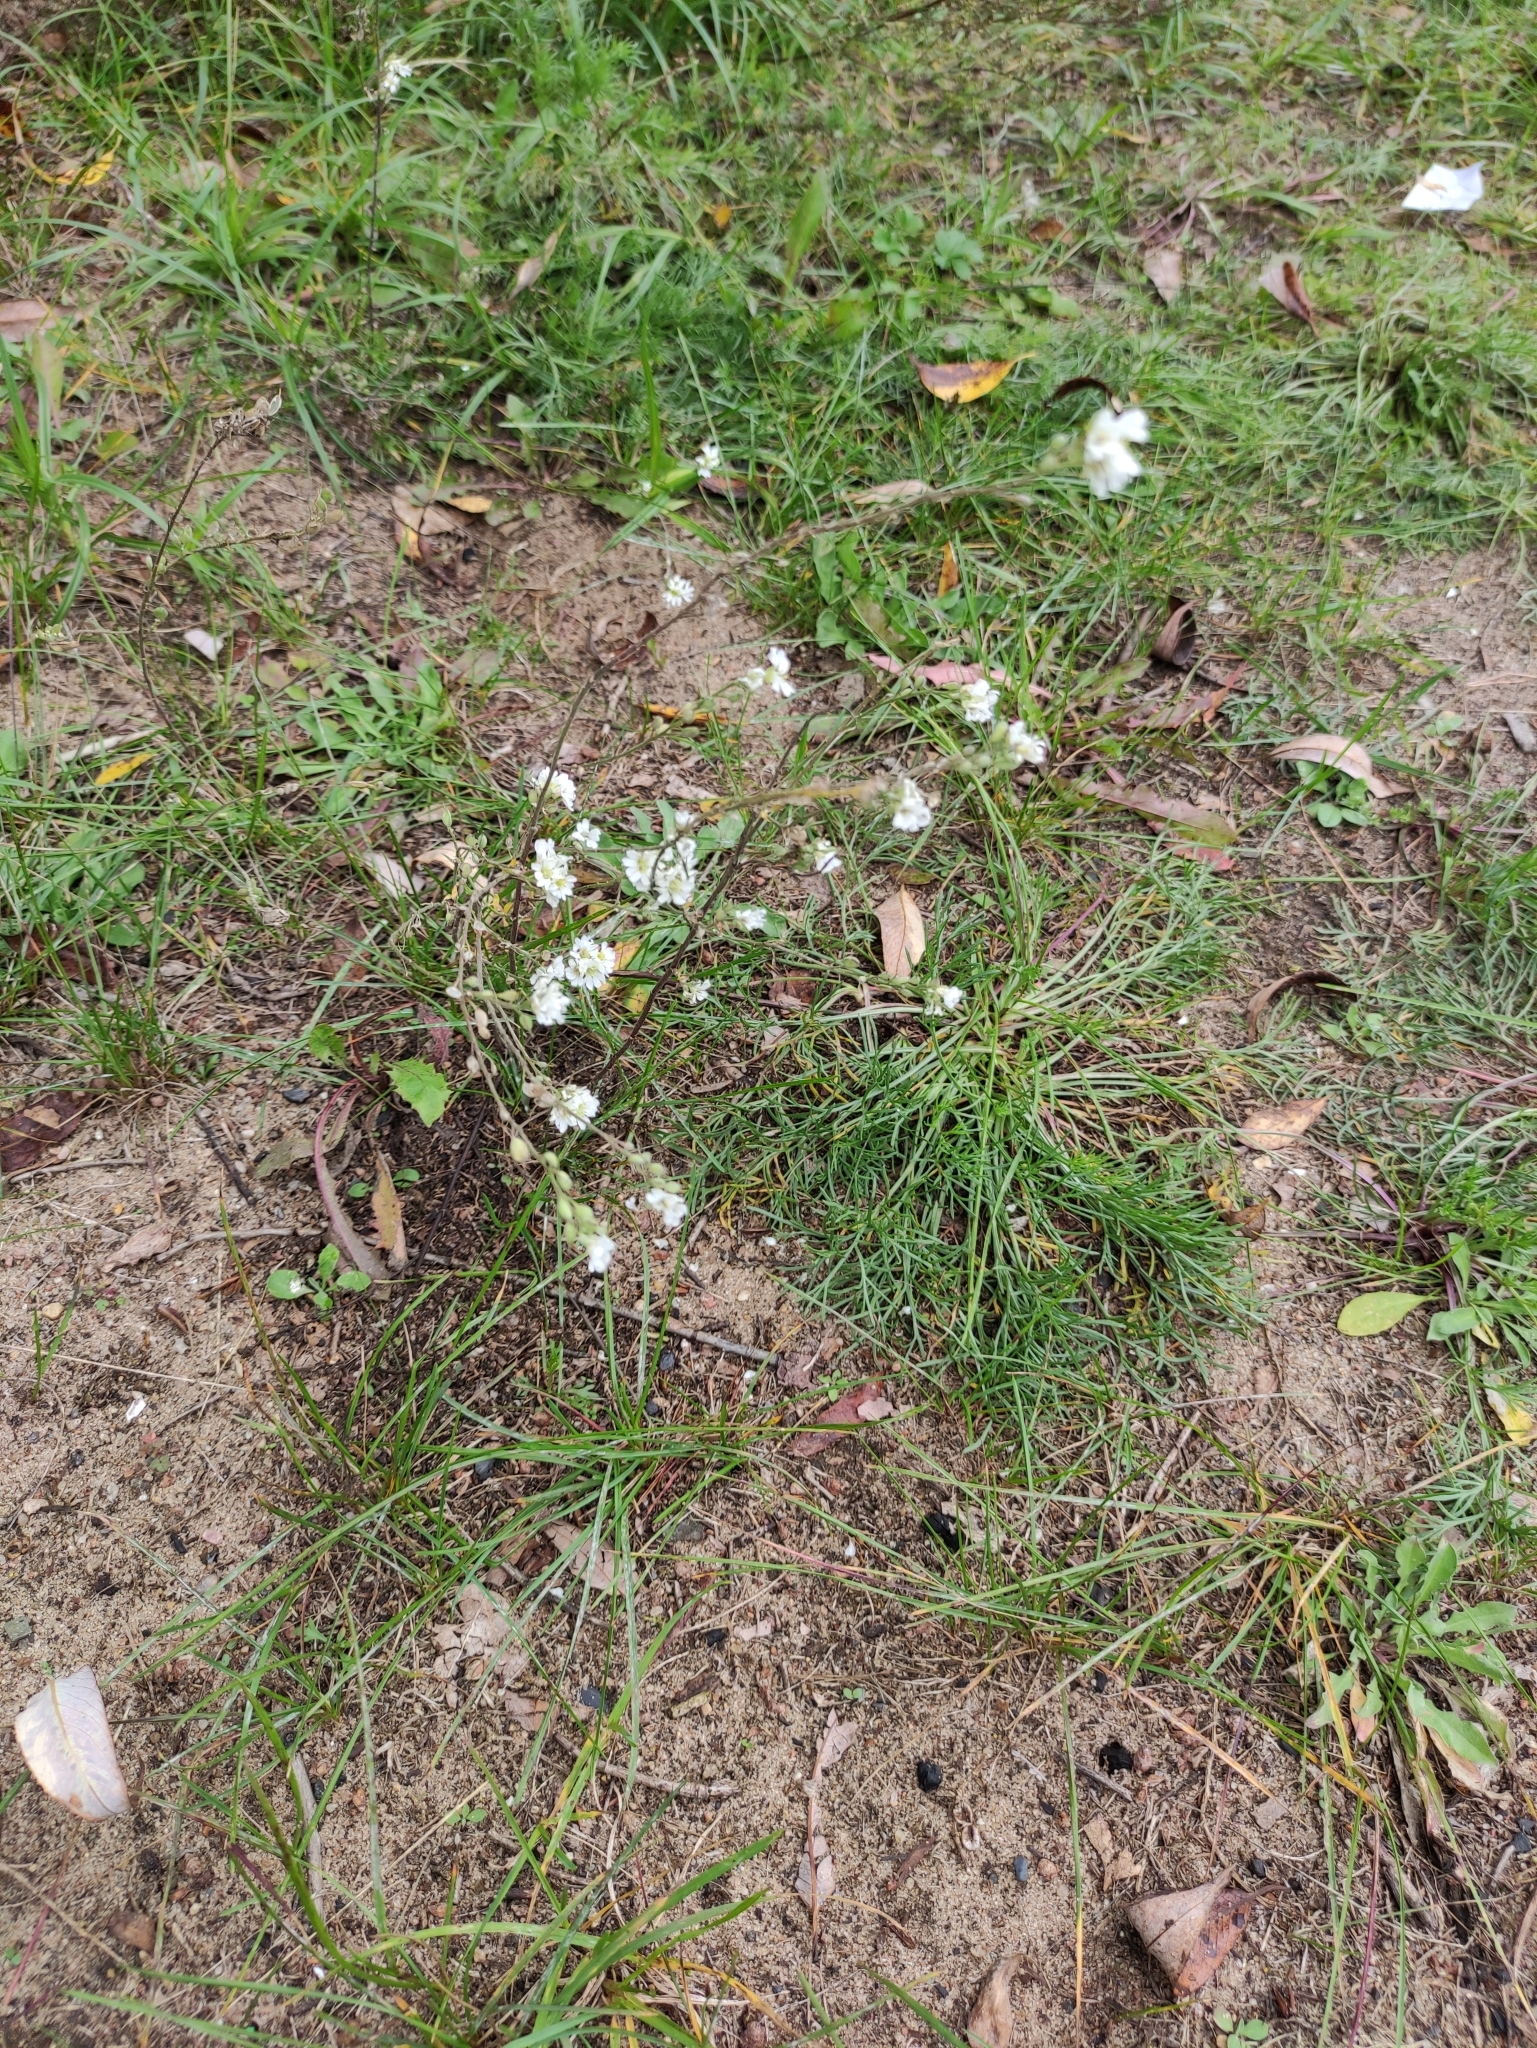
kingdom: Plantae
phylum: Tracheophyta
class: Magnoliopsida
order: Brassicales
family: Brassicaceae
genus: Berteroa
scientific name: Berteroa incana
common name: Hoary alison
